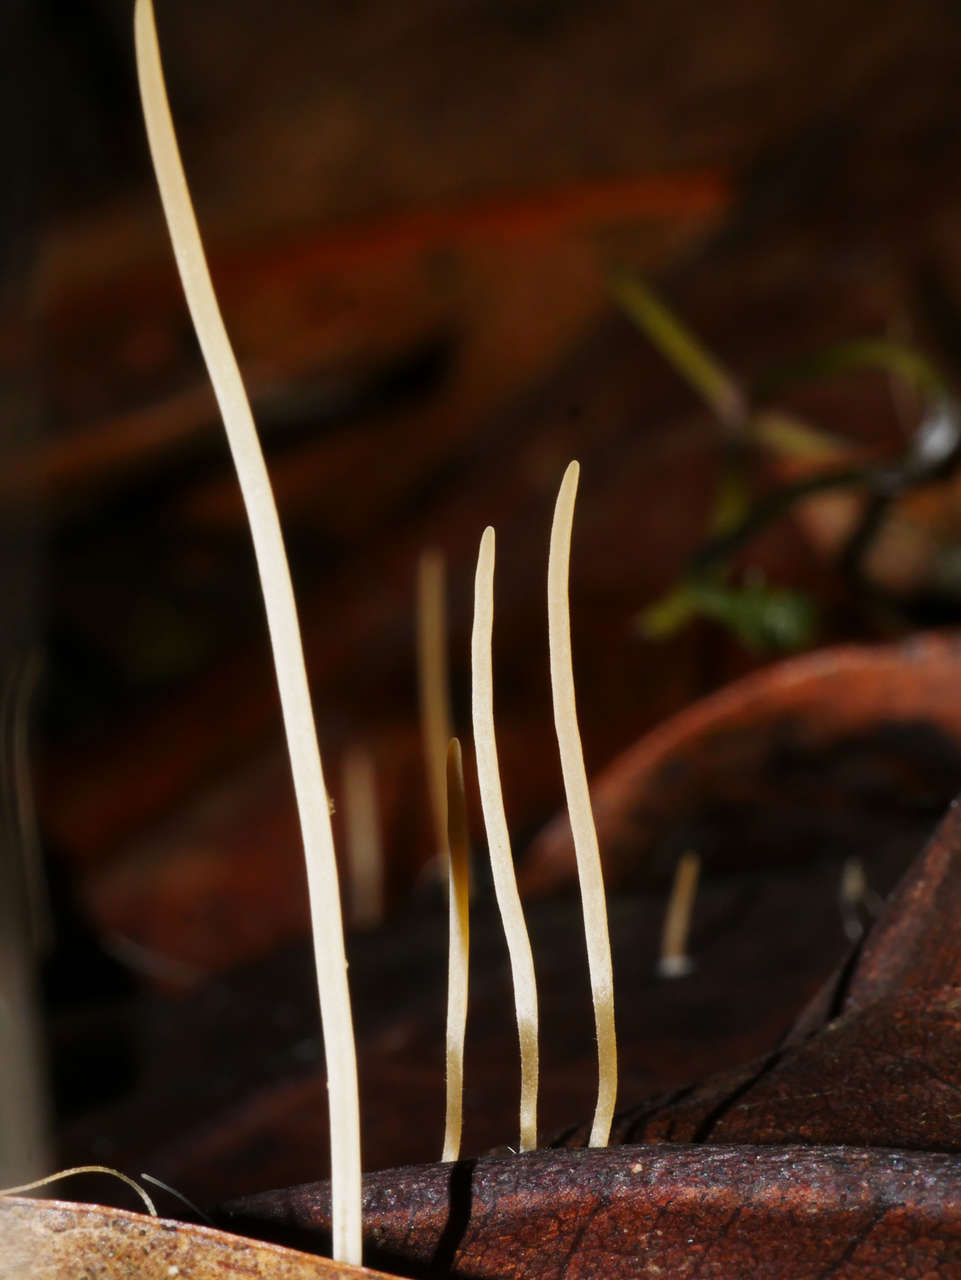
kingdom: Fungi
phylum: Basidiomycota
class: Agaricomycetes
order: Agaricales
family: Typhulaceae
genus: Typhula
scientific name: Typhula juncea
